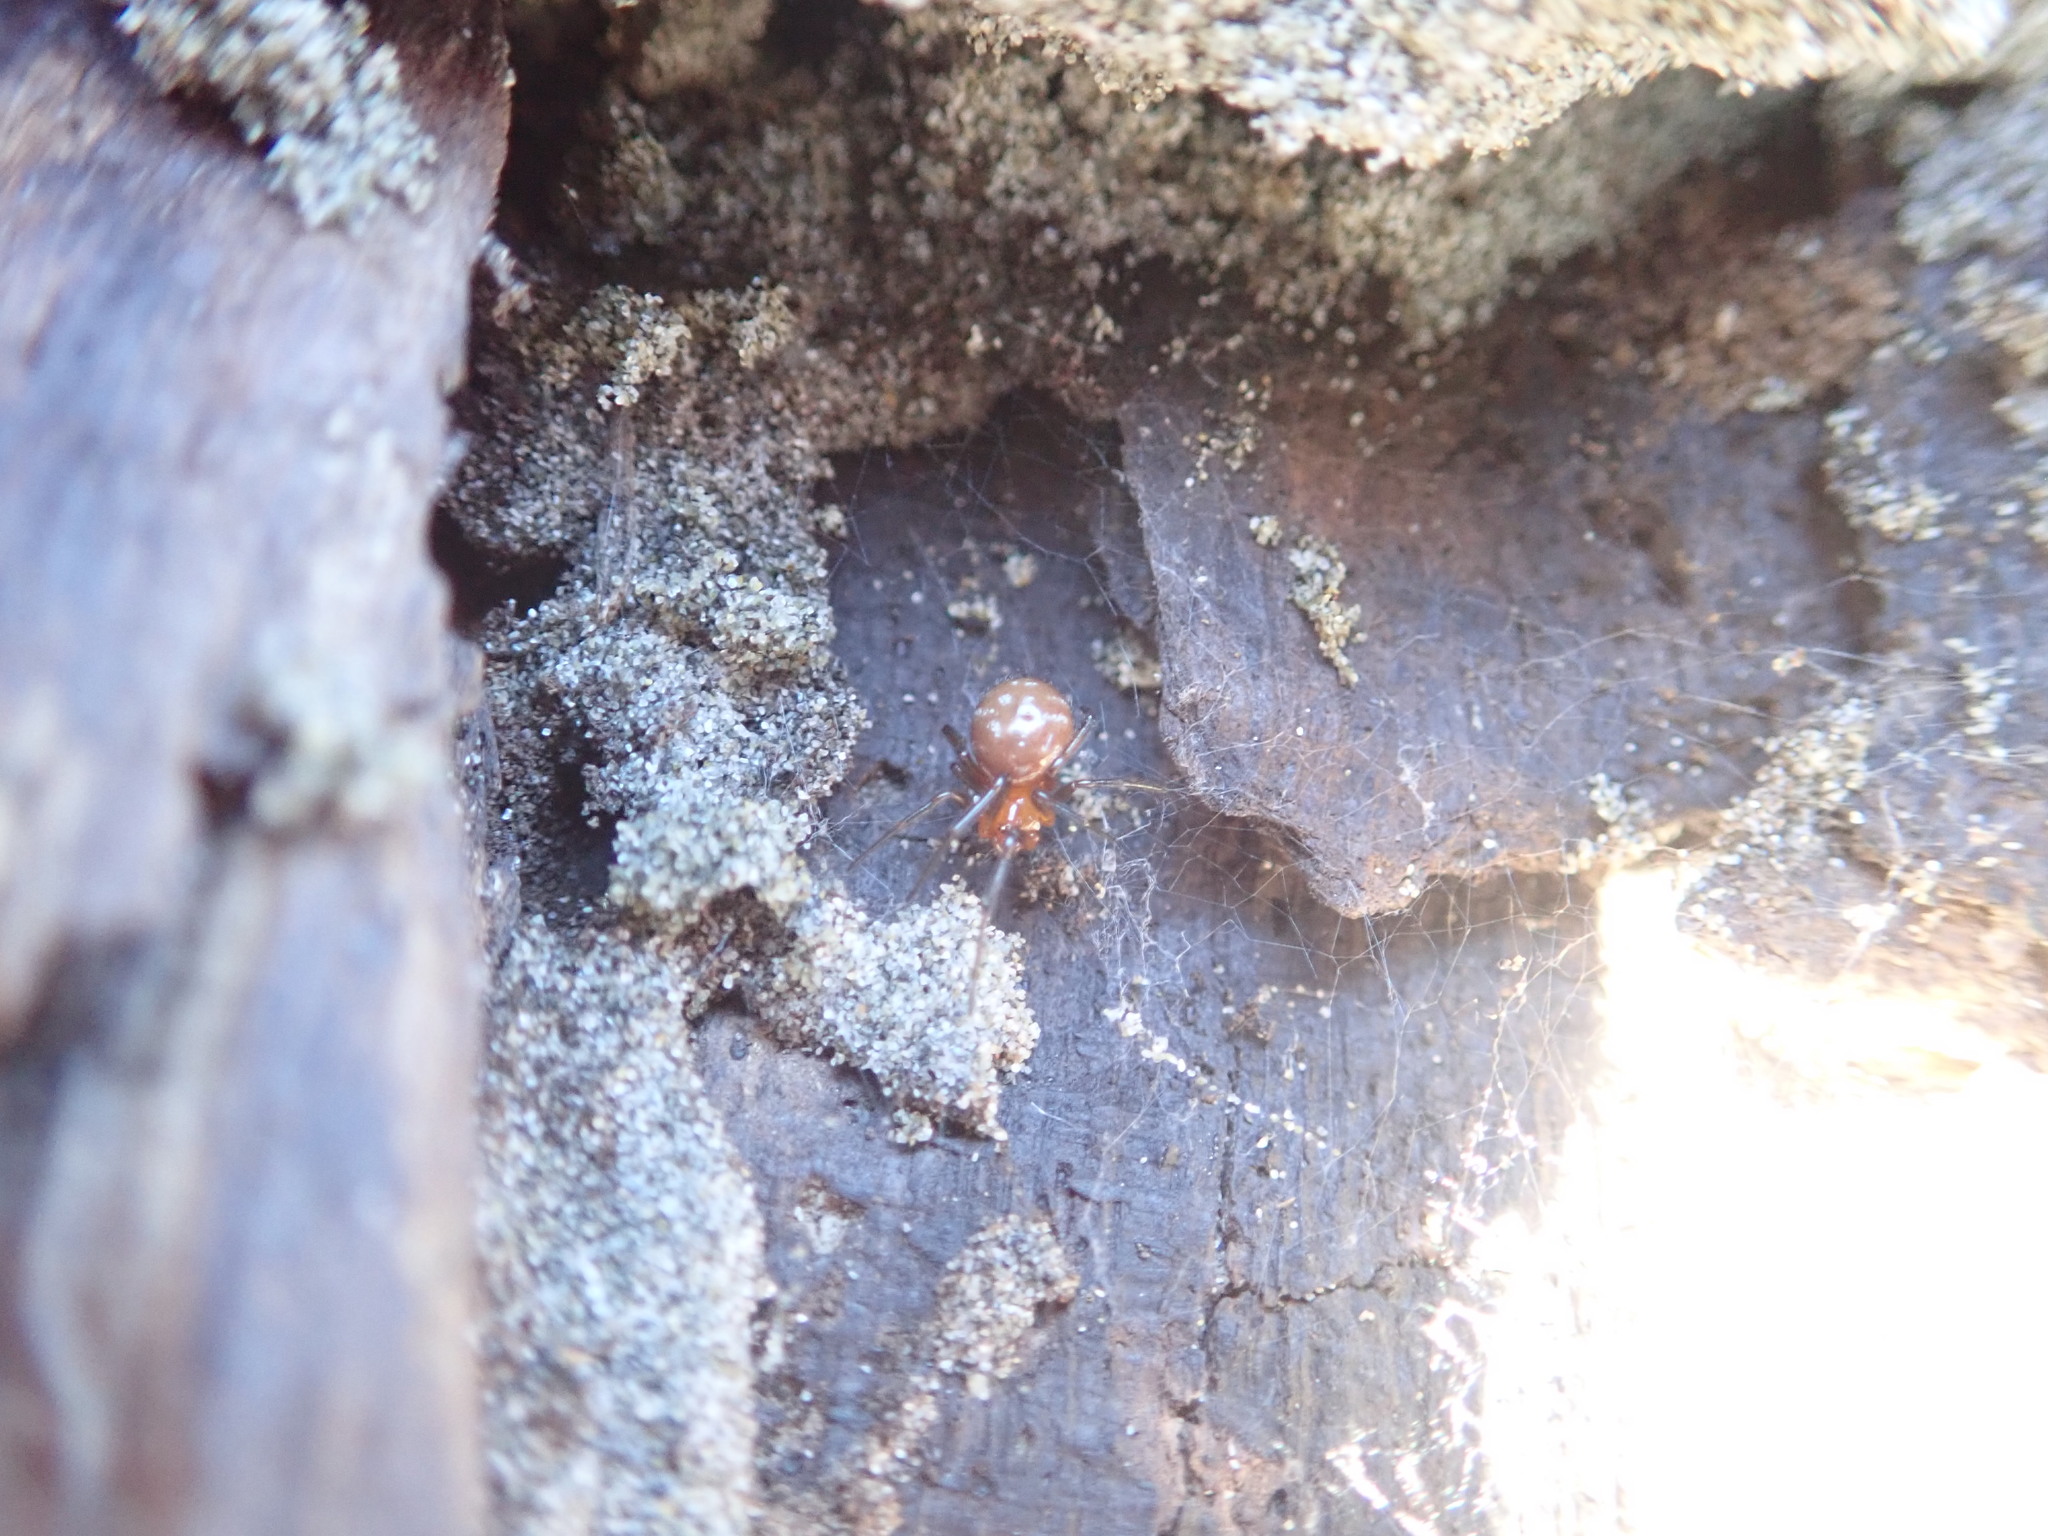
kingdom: Animalia
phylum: Arthropoda
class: Arachnida
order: Araneae
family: Theridiidae
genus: Steatoda
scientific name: Steatoda capensis
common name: Cobweb weaver
